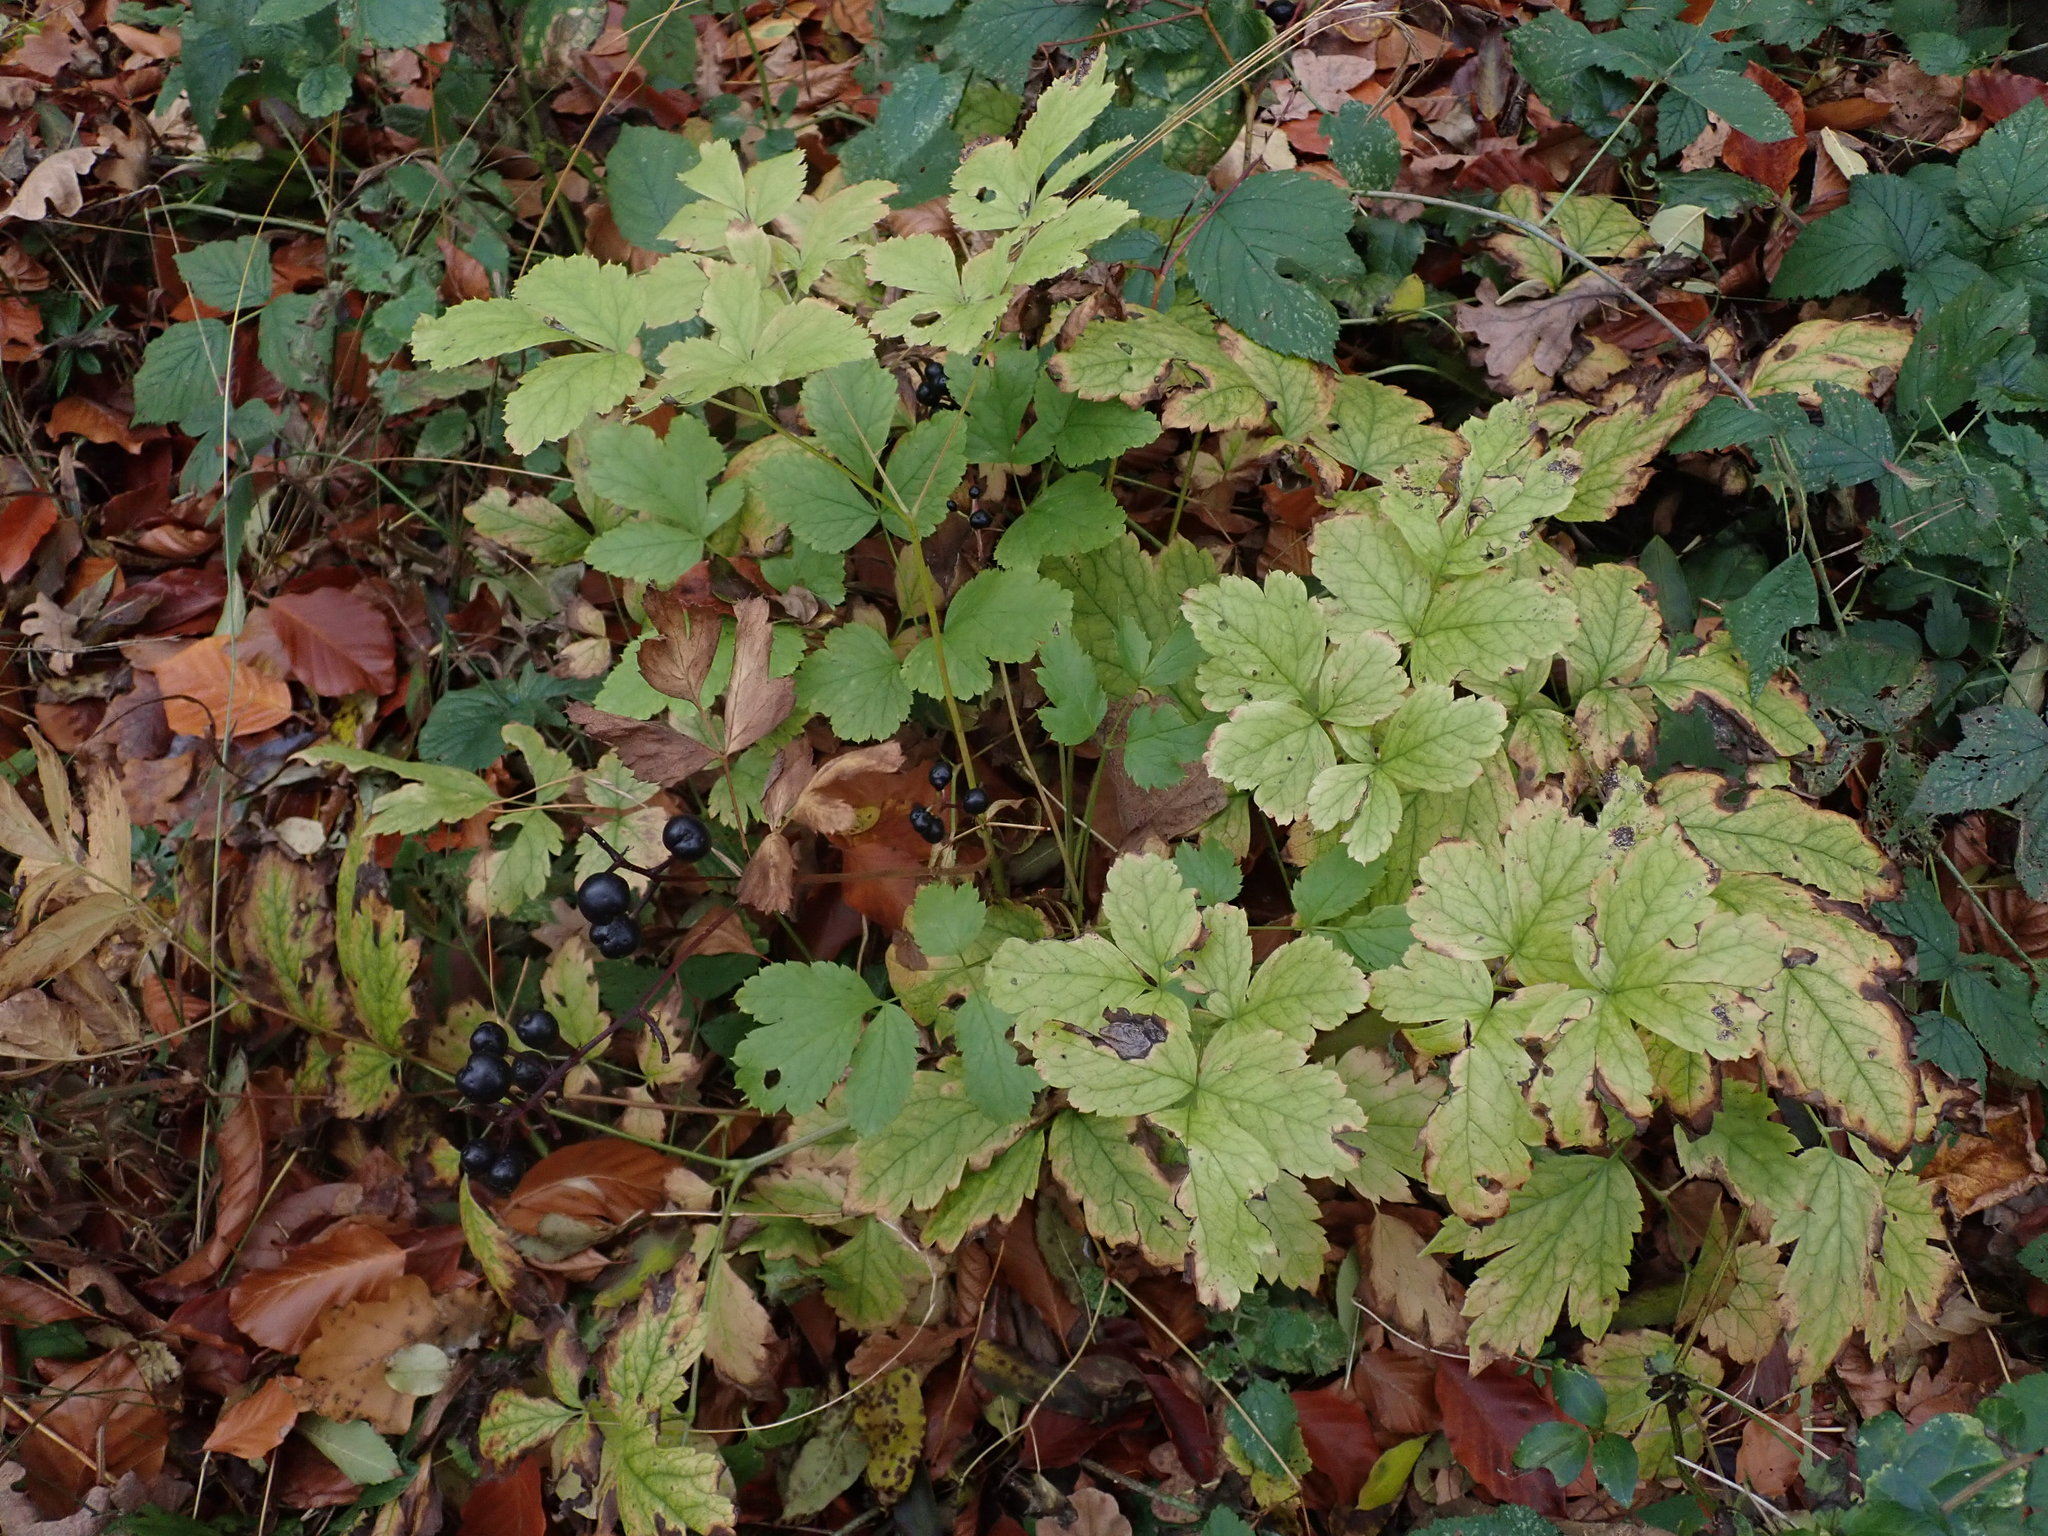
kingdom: Plantae
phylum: Tracheophyta
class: Magnoliopsida
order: Ranunculales
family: Ranunculaceae
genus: Actaea
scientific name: Actaea spicata
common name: Baneberry
